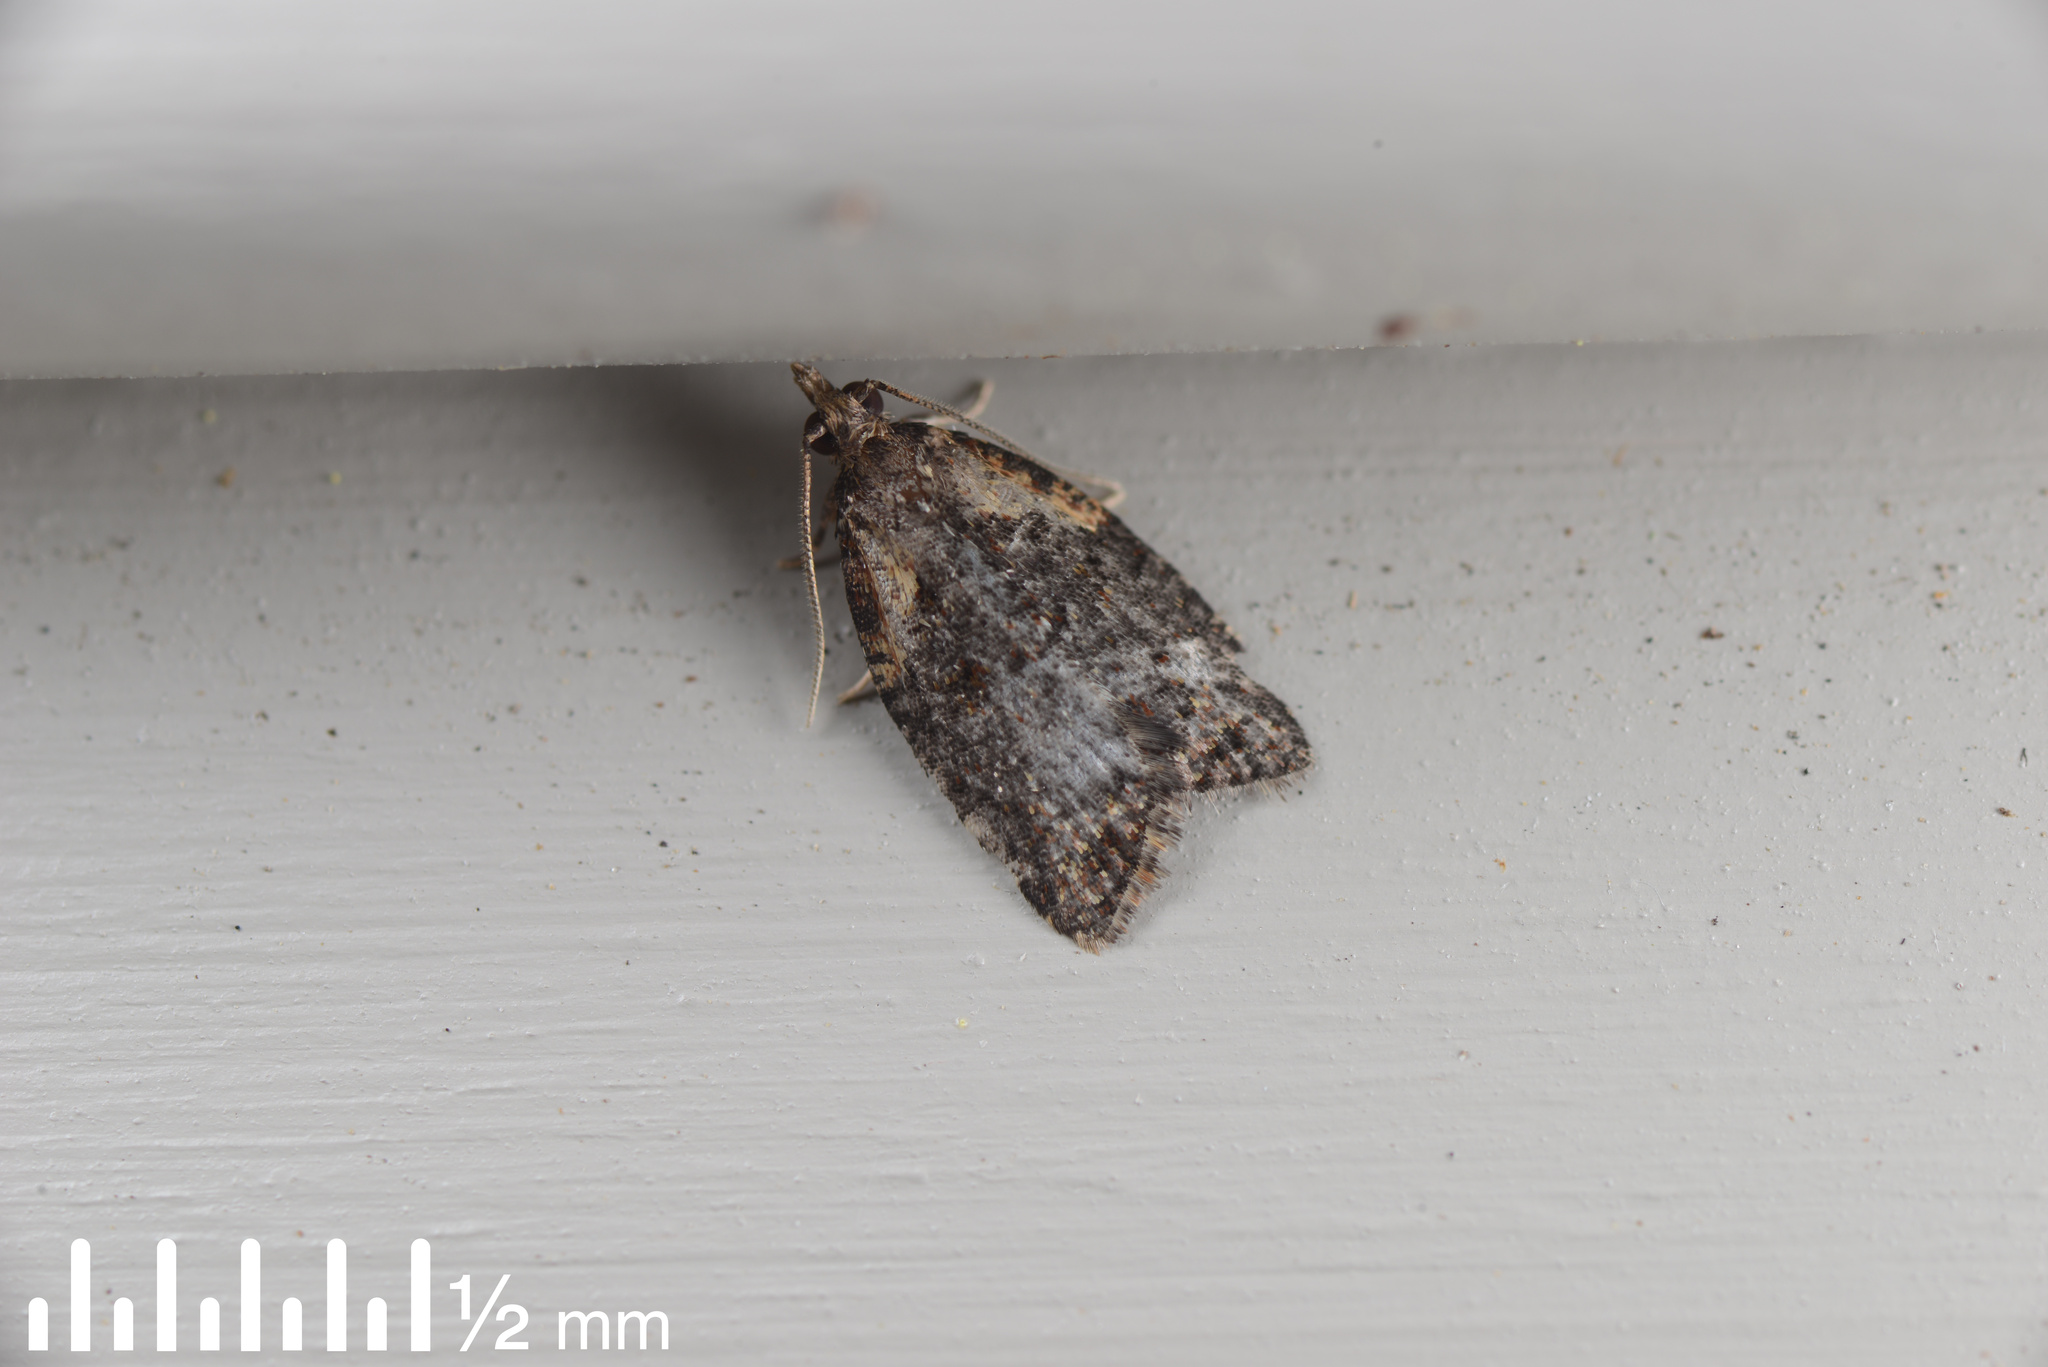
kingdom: Animalia
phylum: Arthropoda
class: Insecta
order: Lepidoptera
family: Tortricidae
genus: Capua
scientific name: Capua intractana
